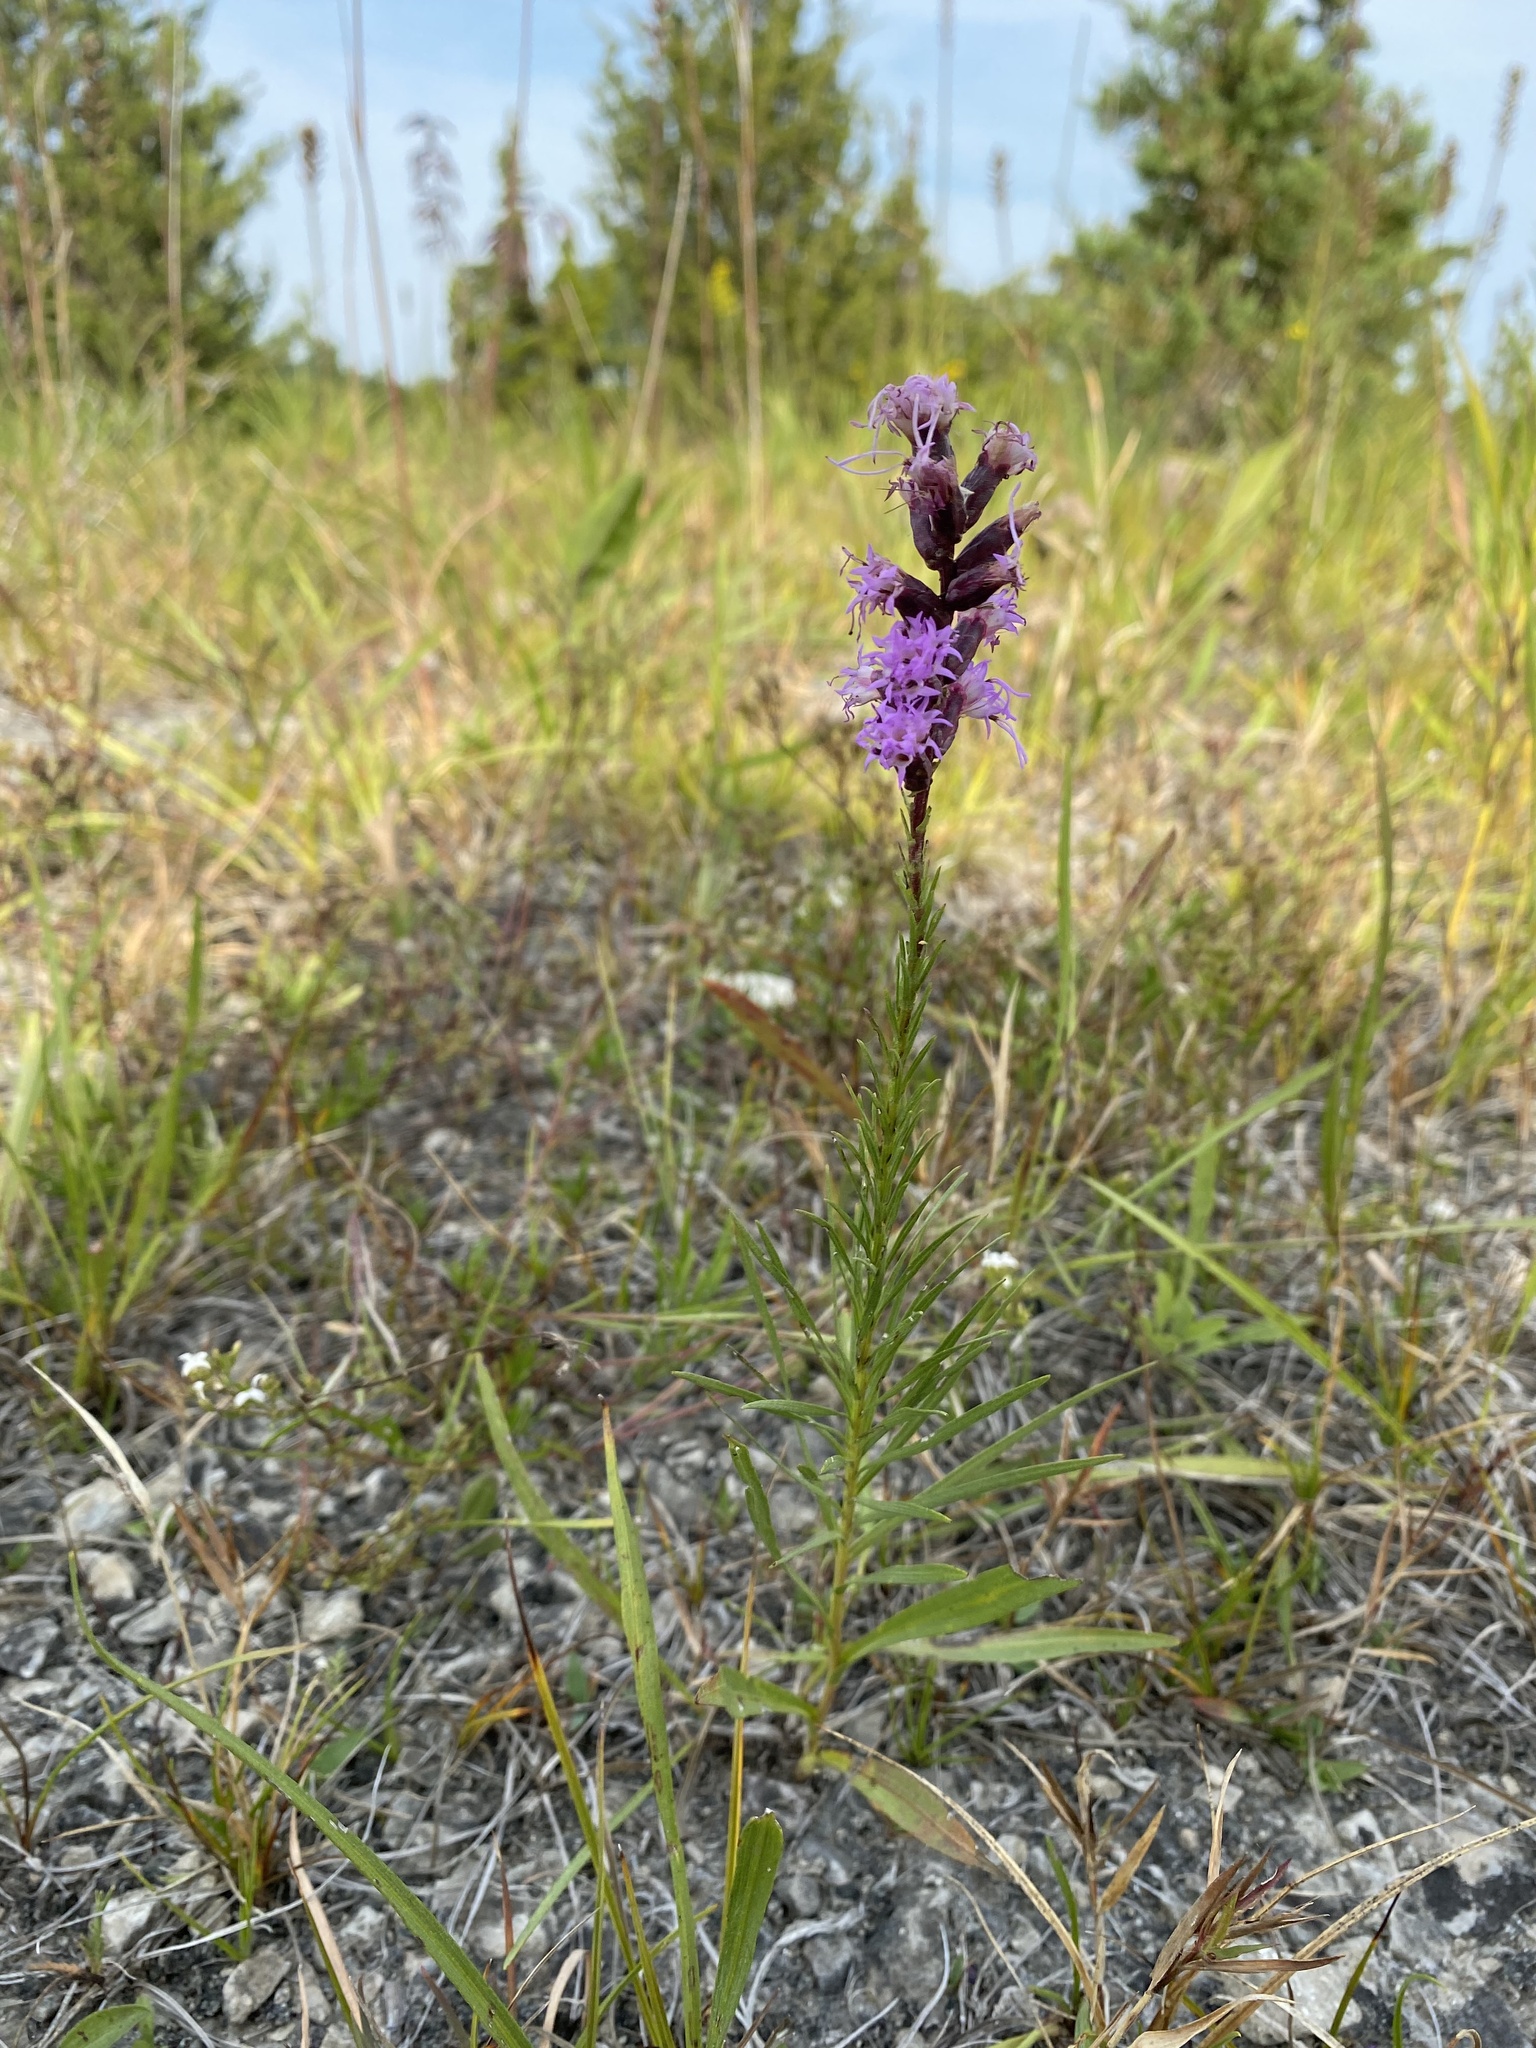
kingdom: Plantae
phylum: Tracheophyta
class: Magnoliopsida
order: Asterales
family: Asteraceae
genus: Liatris
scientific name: Liatris spicata
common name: Florist gayfeather
